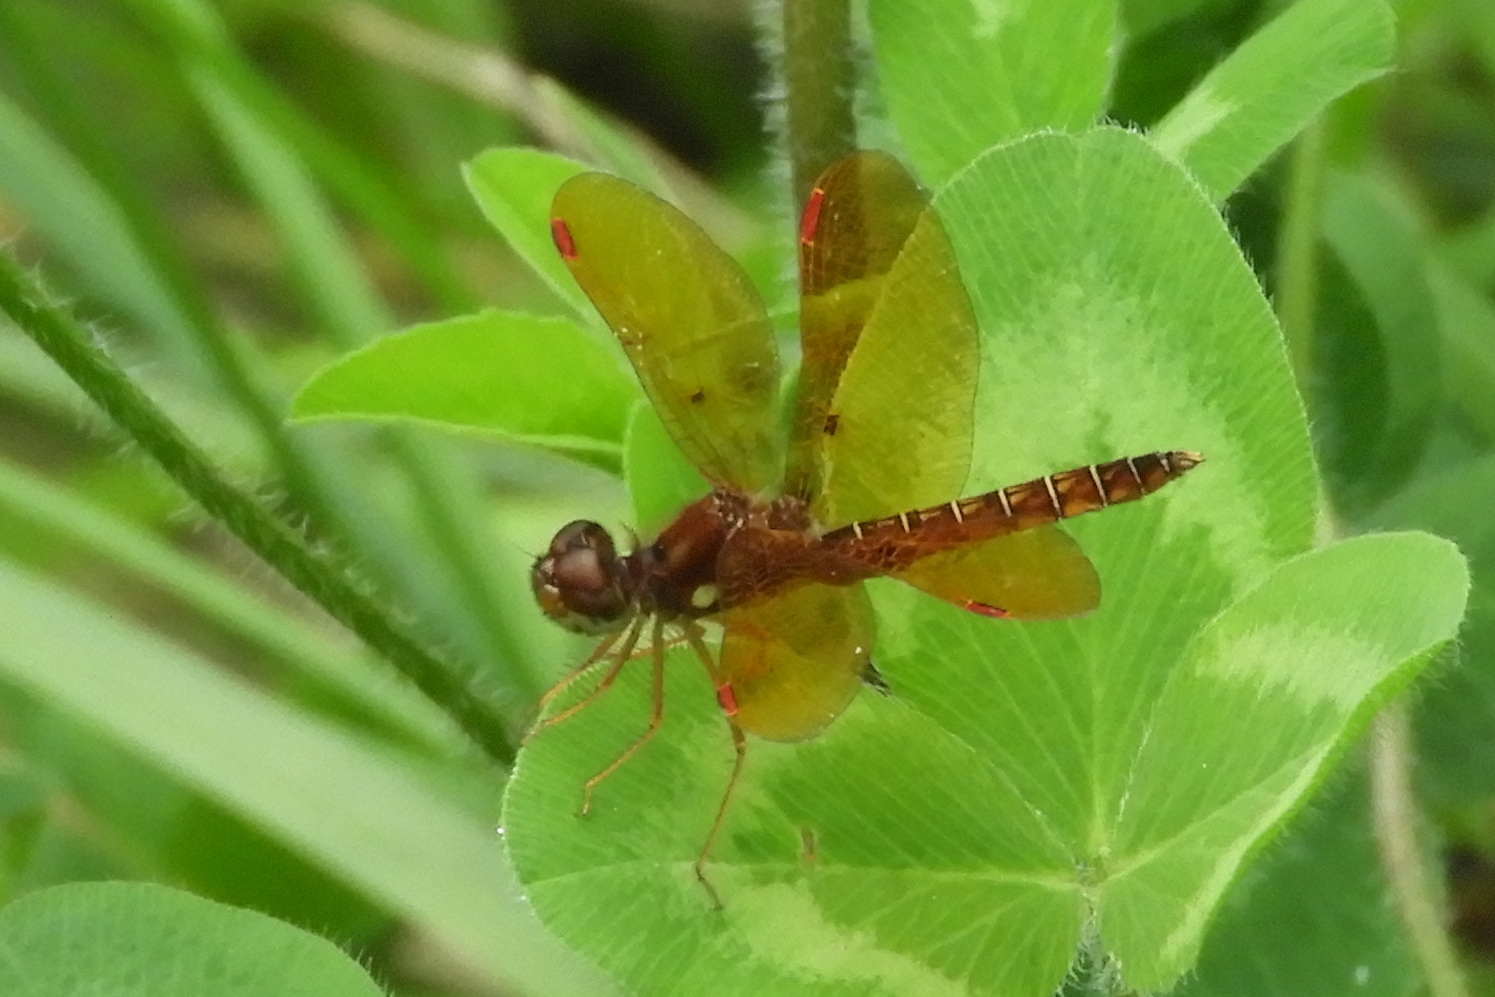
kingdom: Animalia
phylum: Arthropoda
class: Insecta
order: Odonata
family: Libellulidae
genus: Perithemis
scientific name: Perithemis tenera
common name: Eastern amberwing
